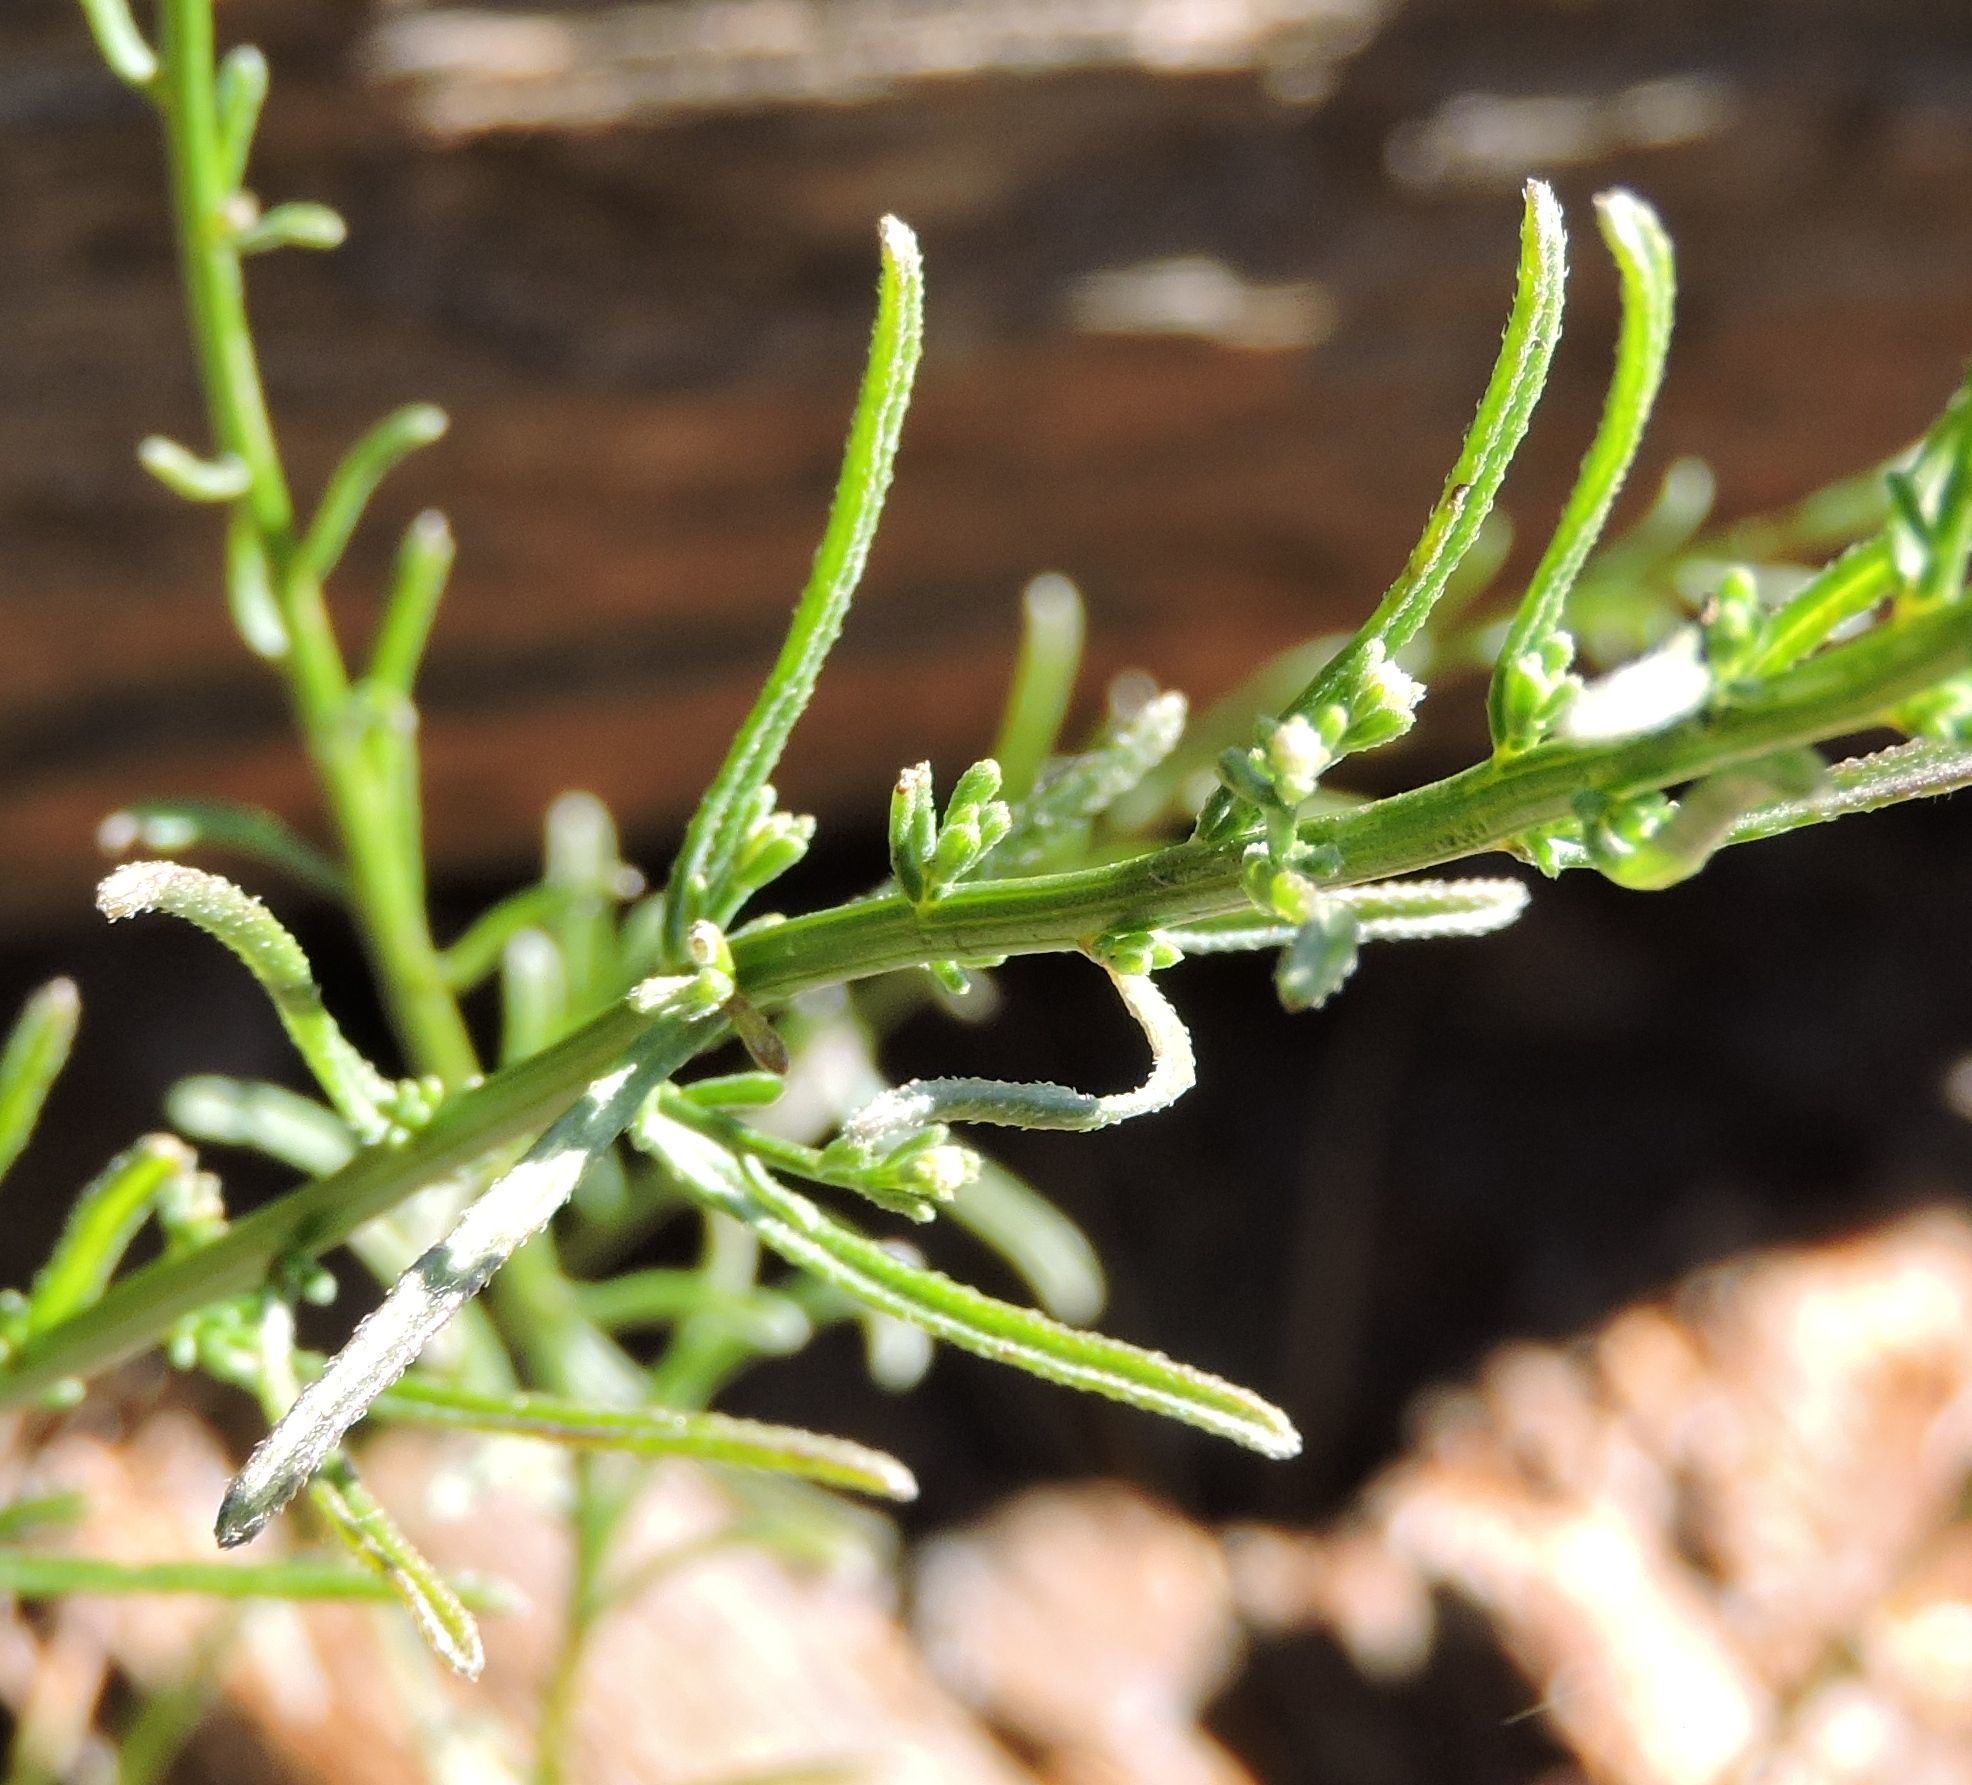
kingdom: Plantae
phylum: Tracheophyta
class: Magnoliopsida
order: Asterales
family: Asteraceae
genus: Erigeron
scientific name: Erigeron foliosus
